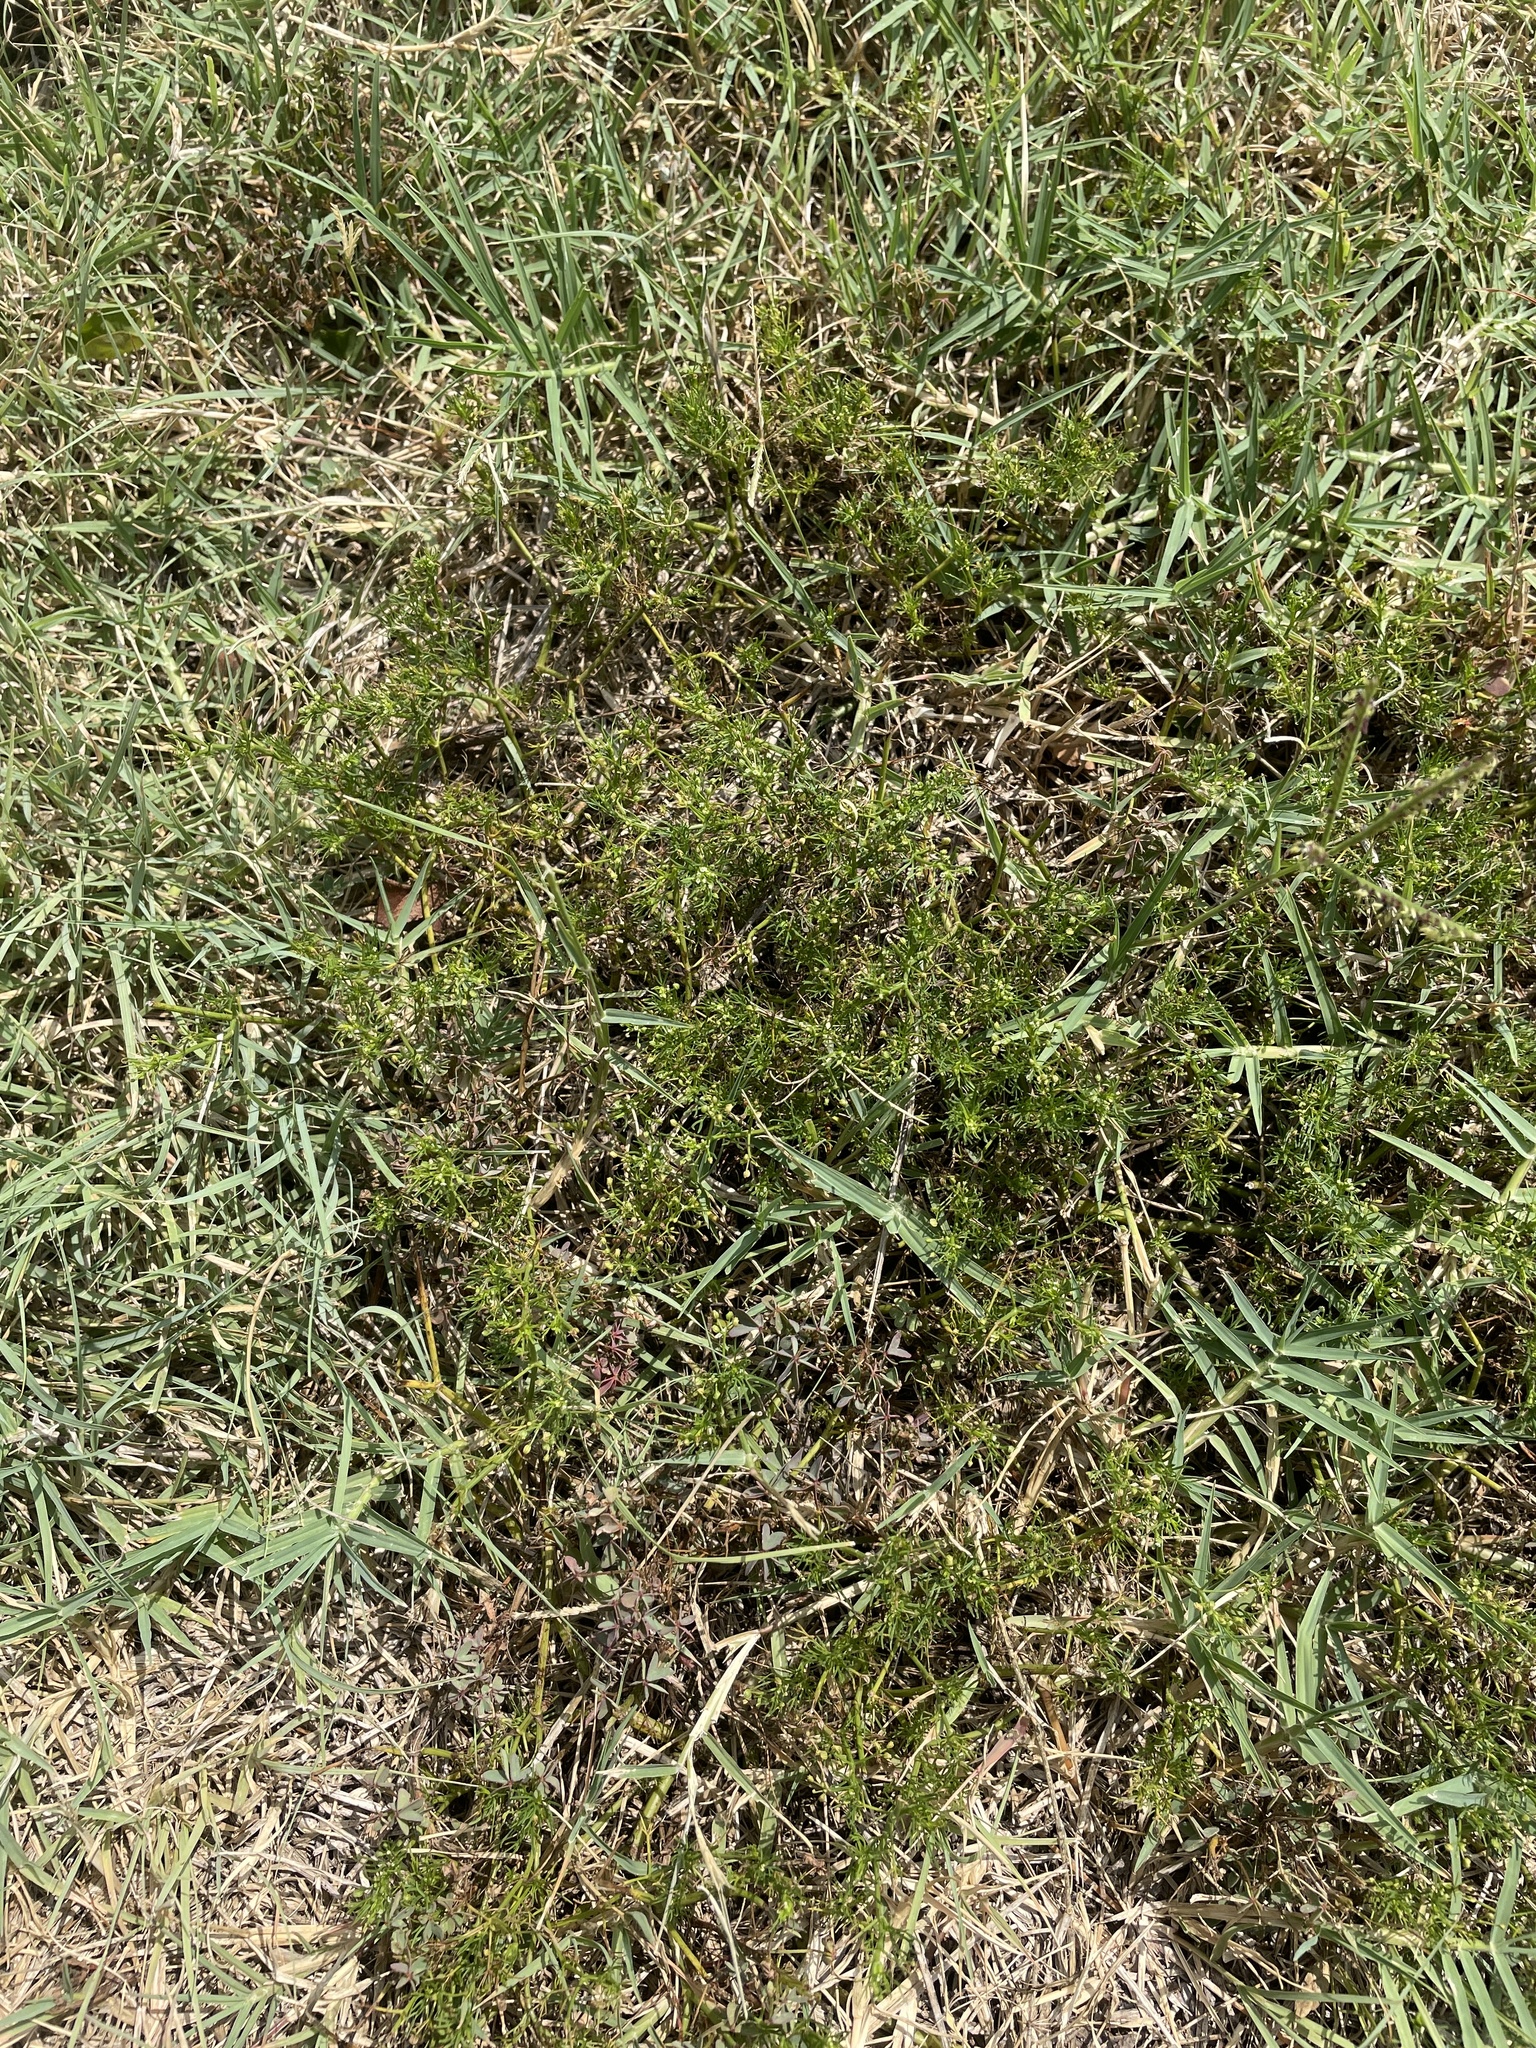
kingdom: Plantae
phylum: Tracheophyta
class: Magnoliopsida
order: Apiales
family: Apiaceae
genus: Cyclospermum
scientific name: Cyclospermum leptophyllum
